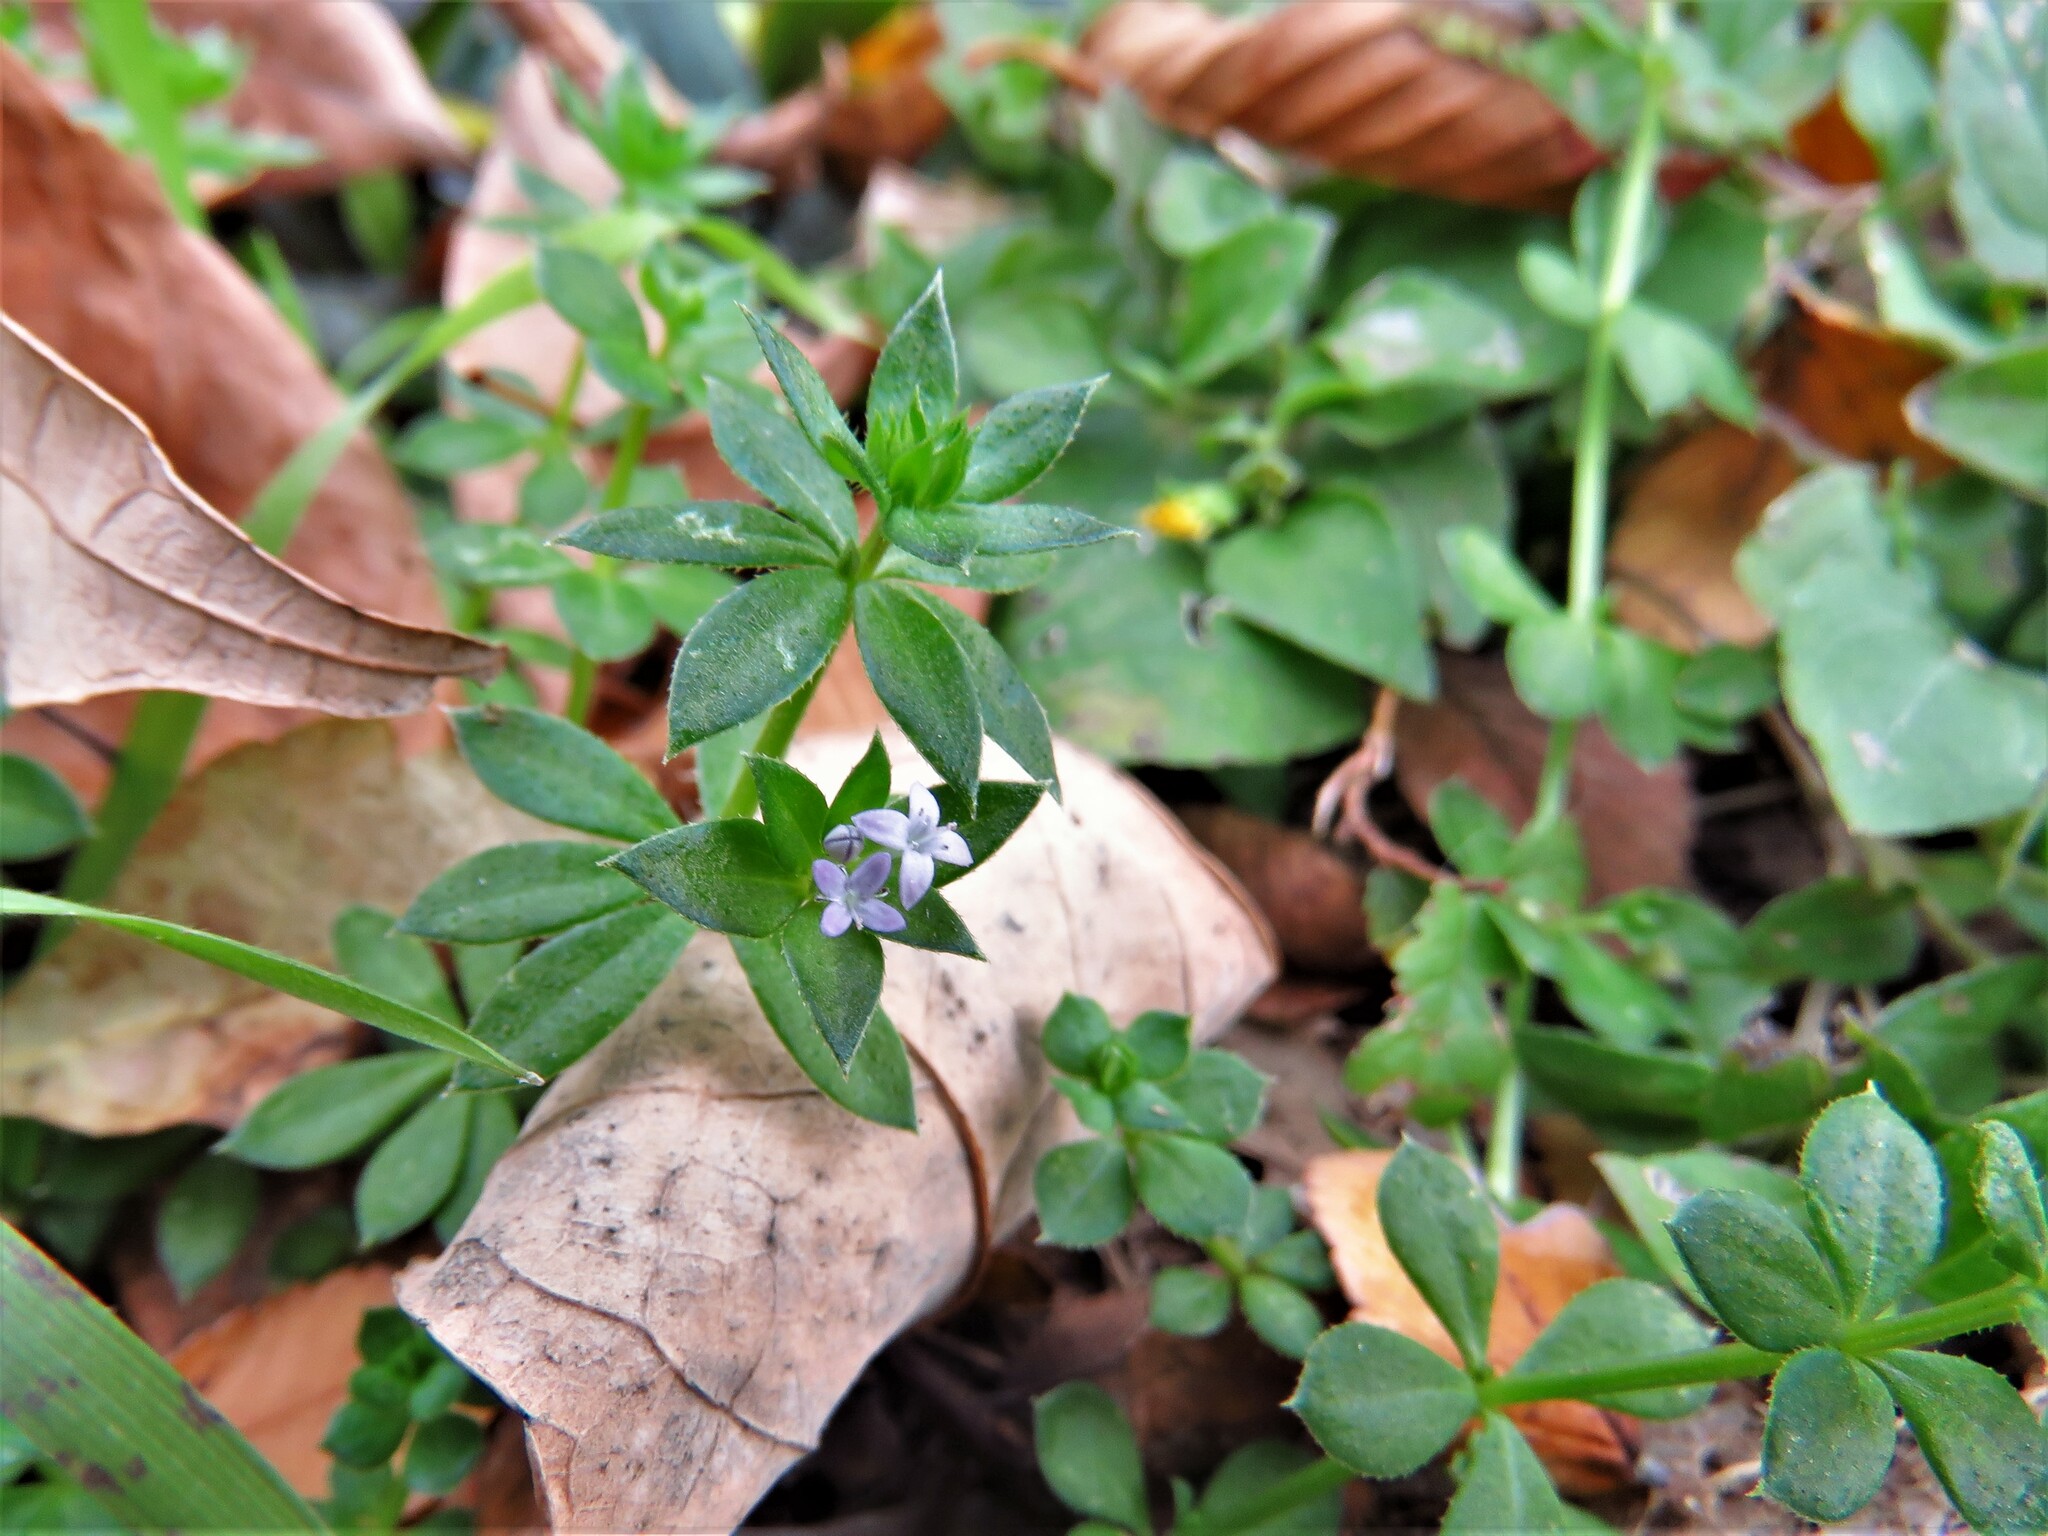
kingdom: Plantae
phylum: Tracheophyta
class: Magnoliopsida
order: Gentianales
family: Rubiaceae
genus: Sherardia
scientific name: Sherardia arvensis
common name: Field madder
